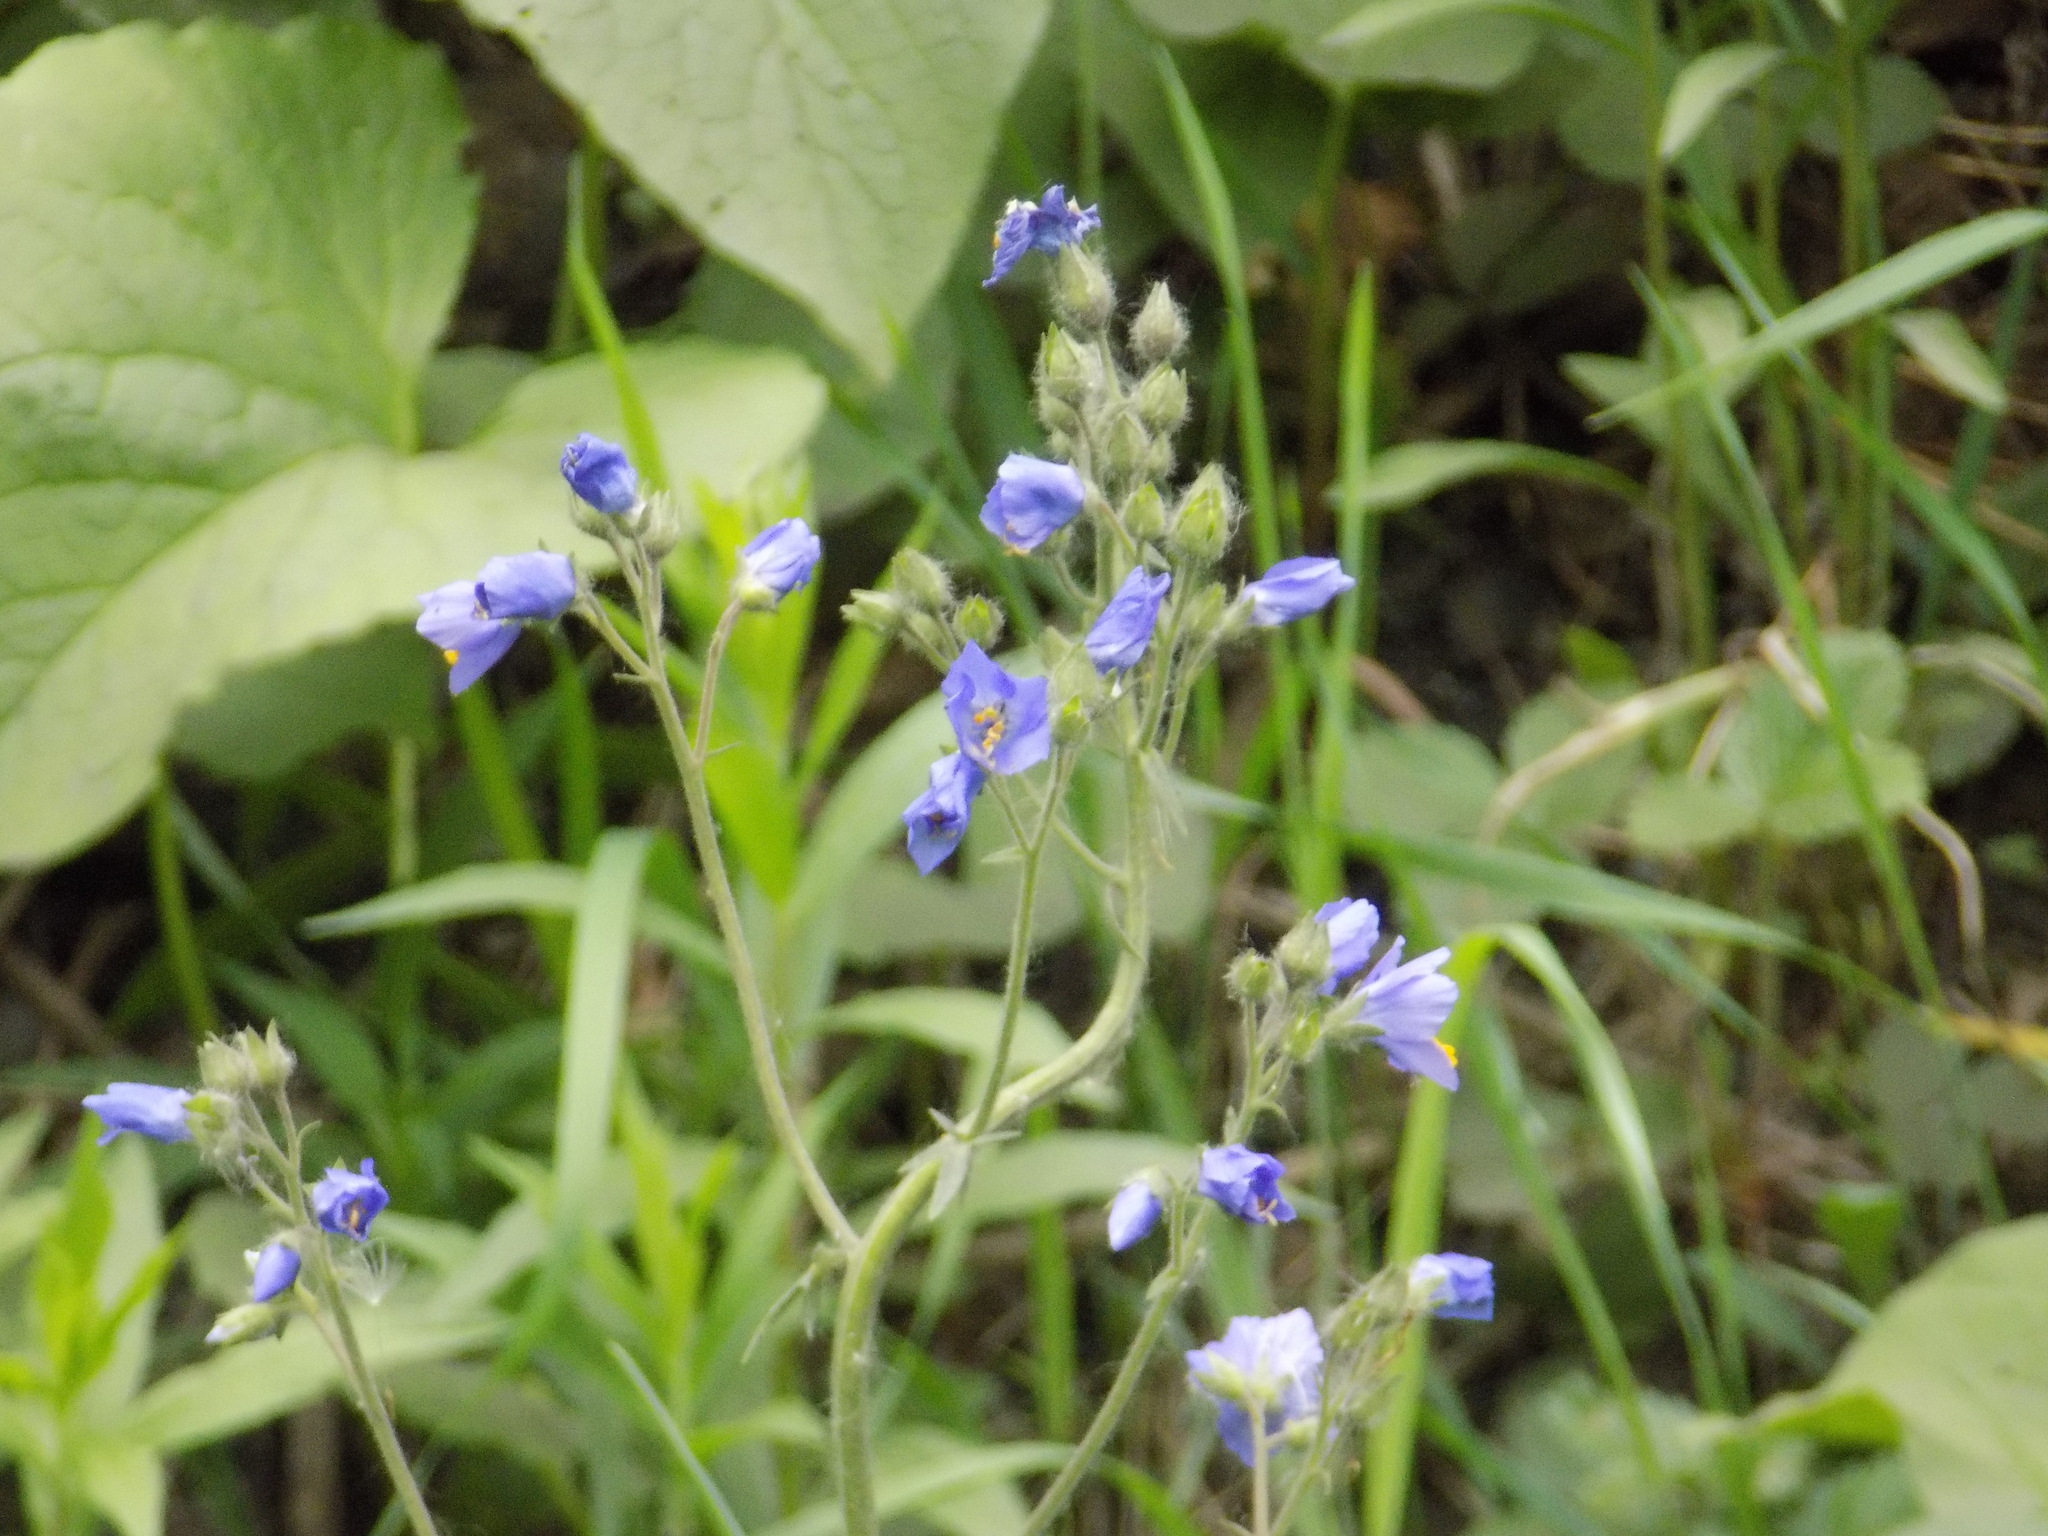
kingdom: Plantae
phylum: Tracheophyta
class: Magnoliopsida
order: Ericales
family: Polemoniaceae
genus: Polemonium
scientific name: Polemonium caeruleum
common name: Jacob's-ladder
